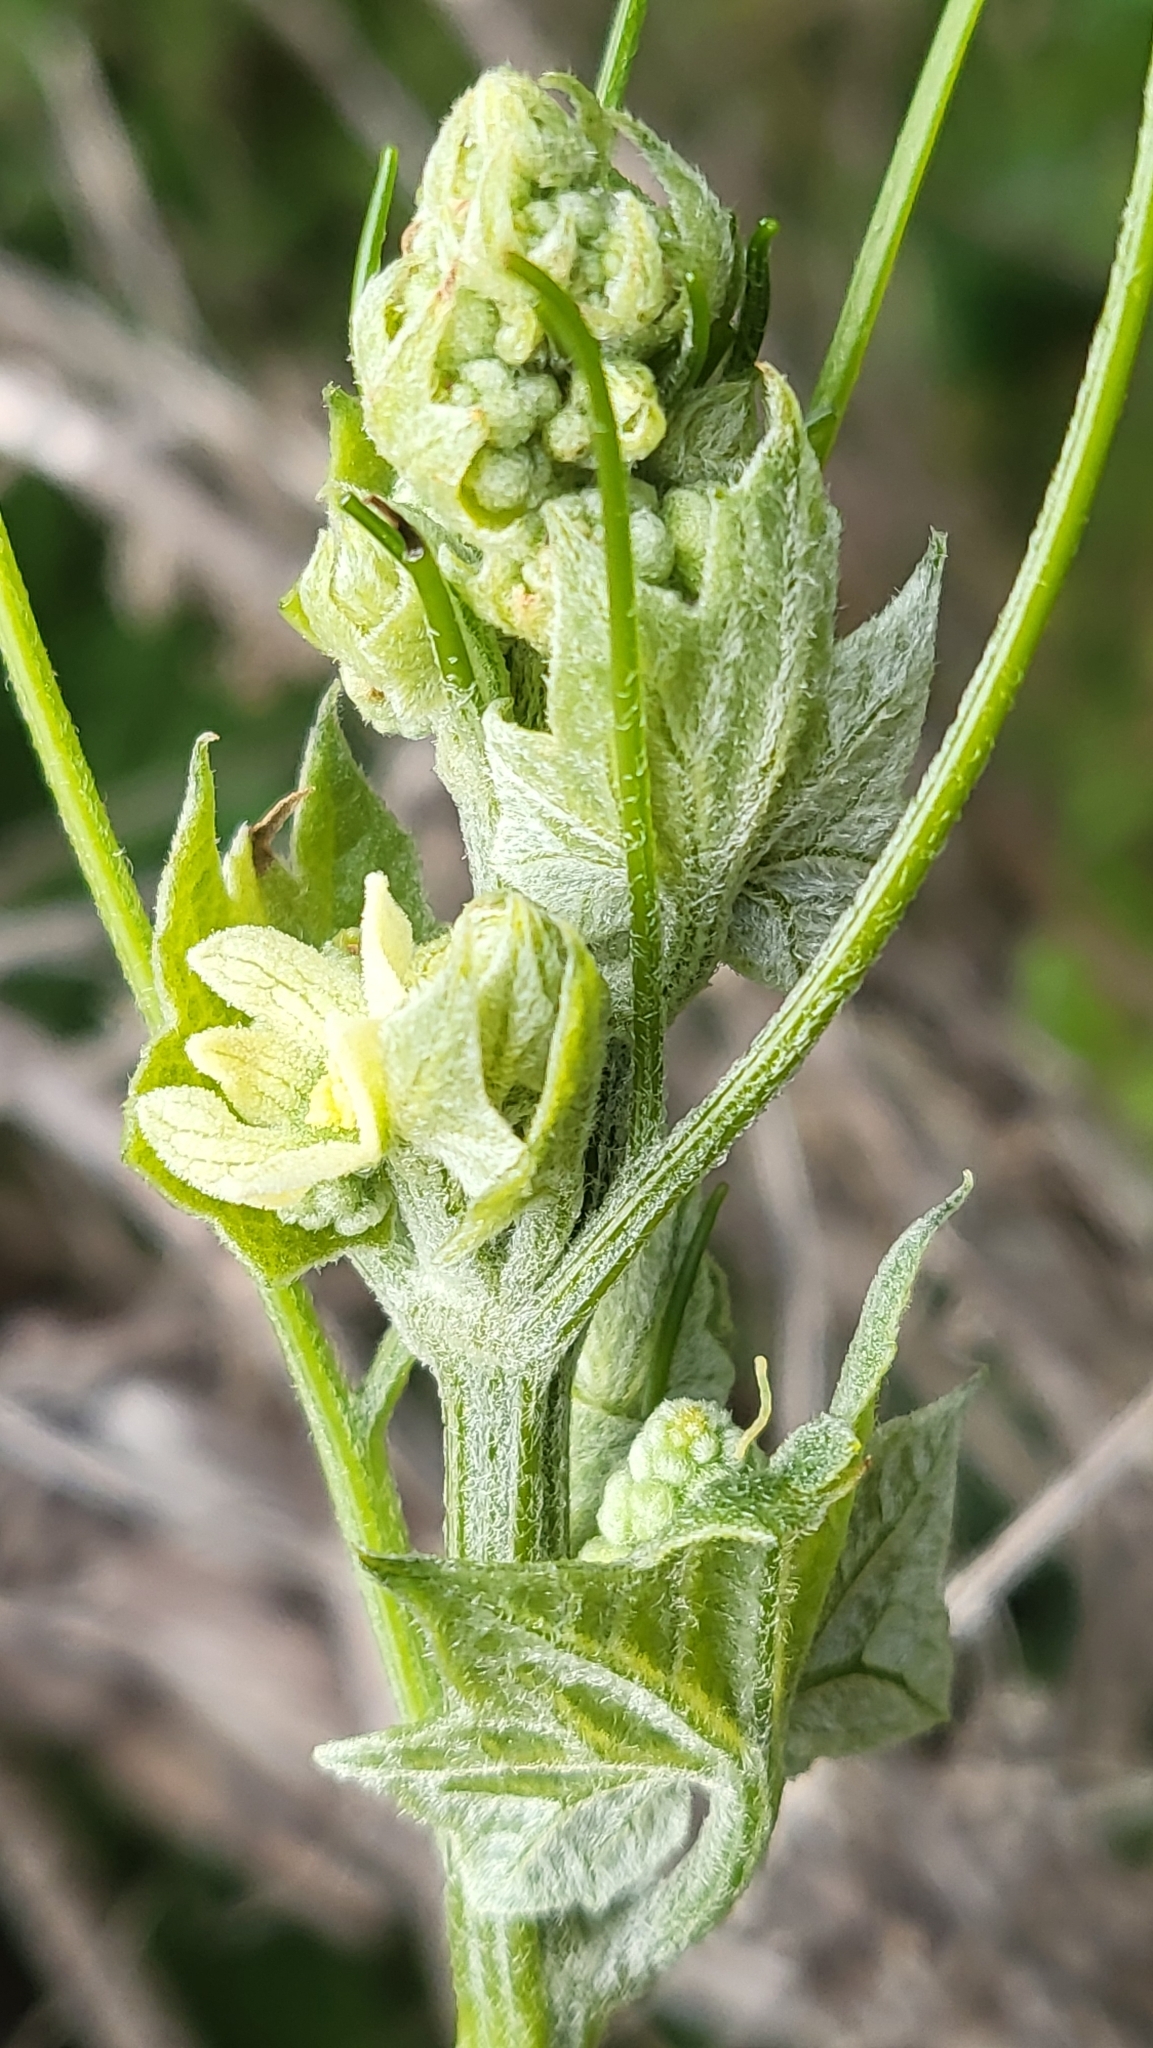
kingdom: Plantae
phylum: Tracheophyta
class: Magnoliopsida
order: Cucurbitales
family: Cucurbitaceae
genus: Marah
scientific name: Marah fabacea
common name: California manroot
